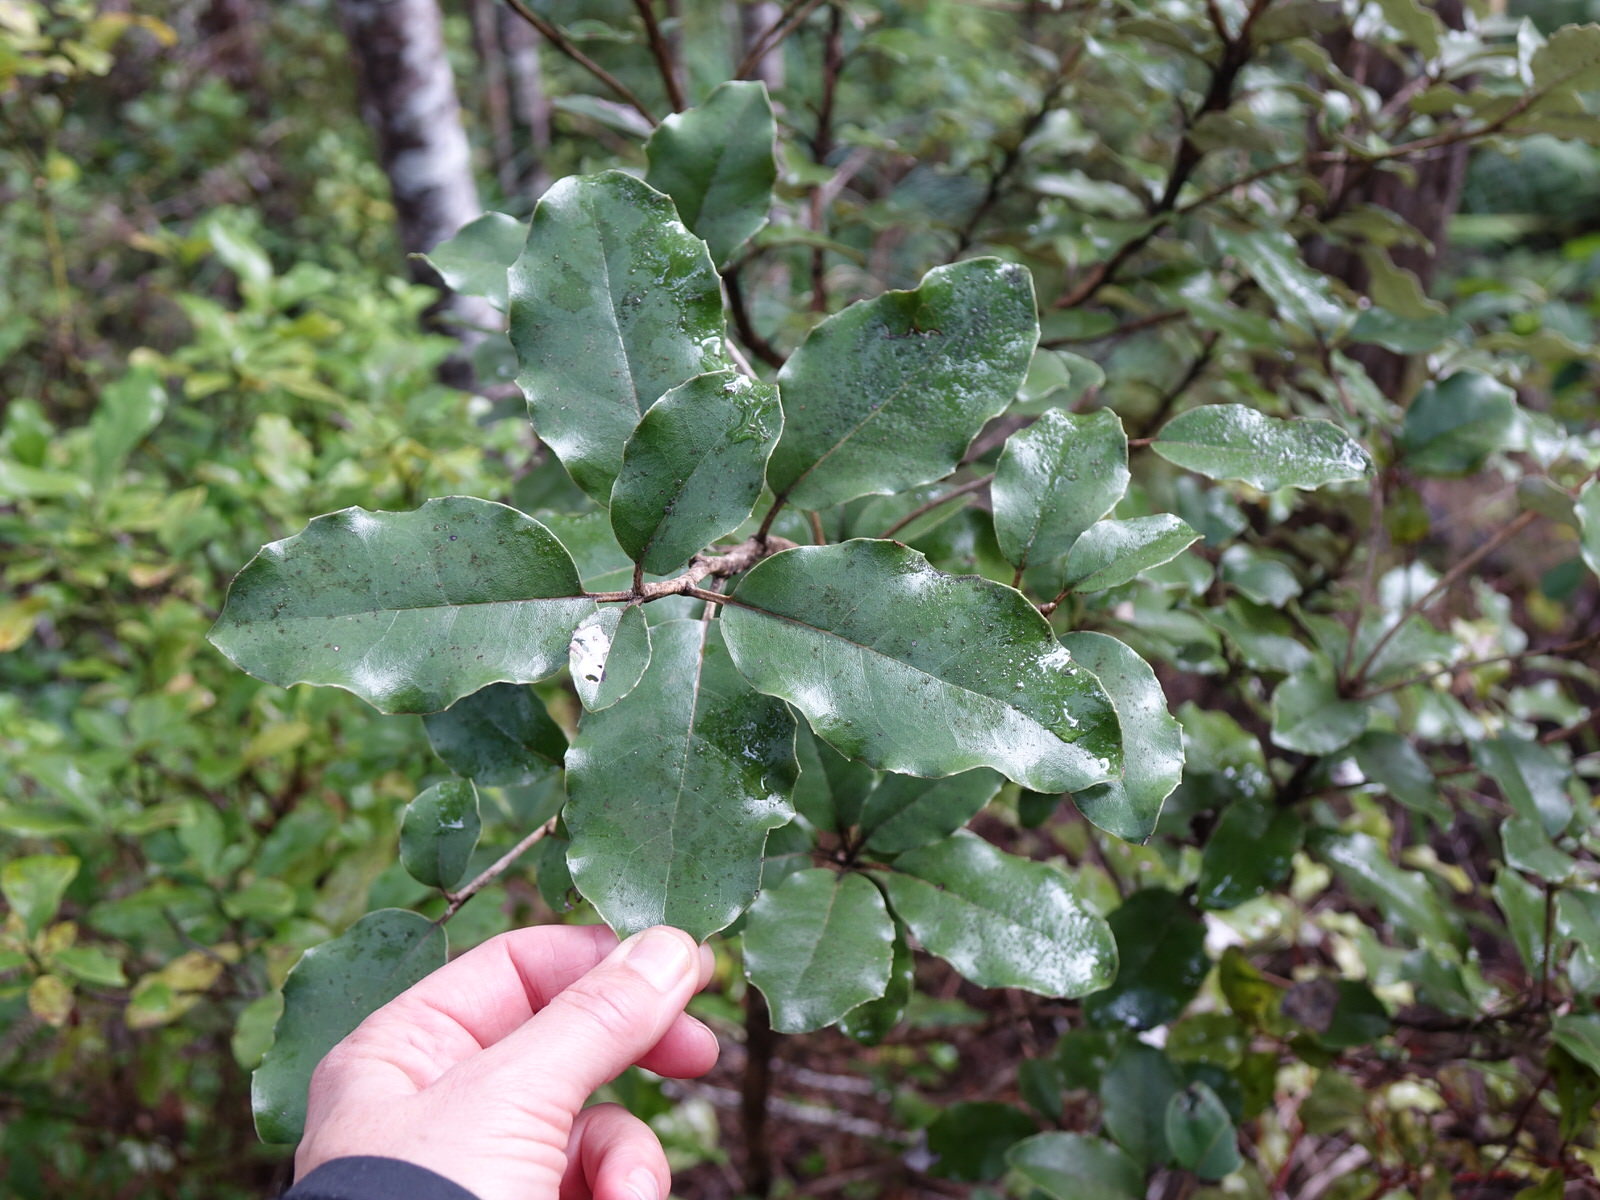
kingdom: Plantae
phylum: Tracheophyta
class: Magnoliopsida
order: Asterales
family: Asteraceae
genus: Olearia
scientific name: Olearia furfuracea
